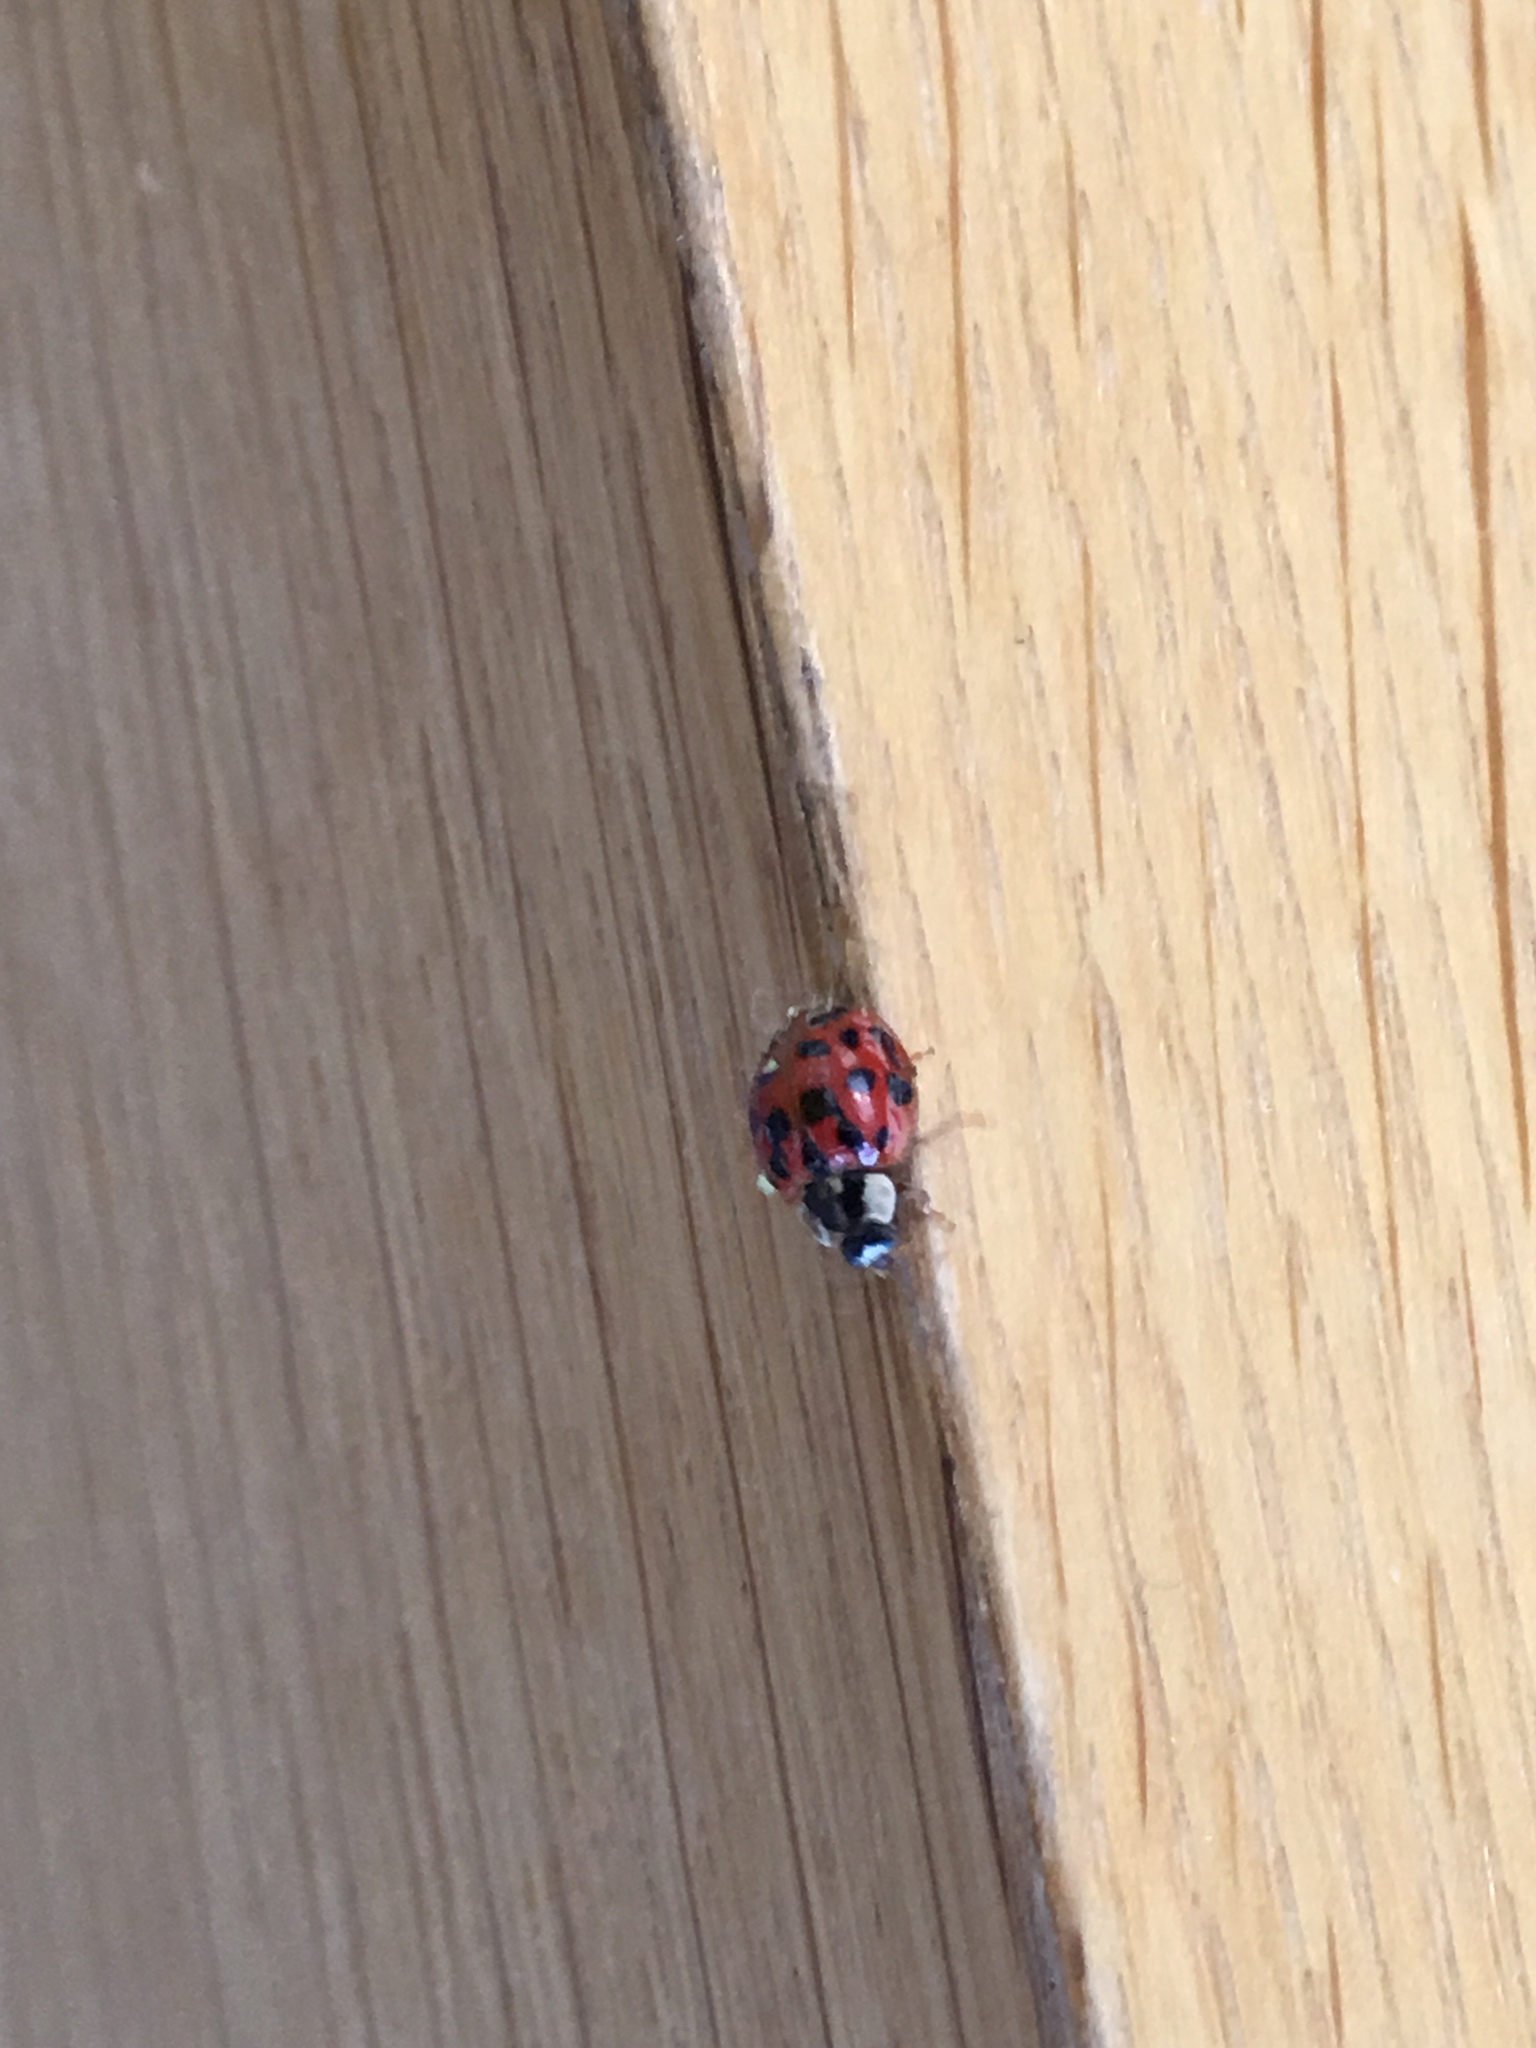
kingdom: Animalia
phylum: Arthropoda
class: Insecta
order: Coleoptera
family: Coccinellidae
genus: Harmonia
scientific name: Harmonia axyridis
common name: Harlequin ladybird
